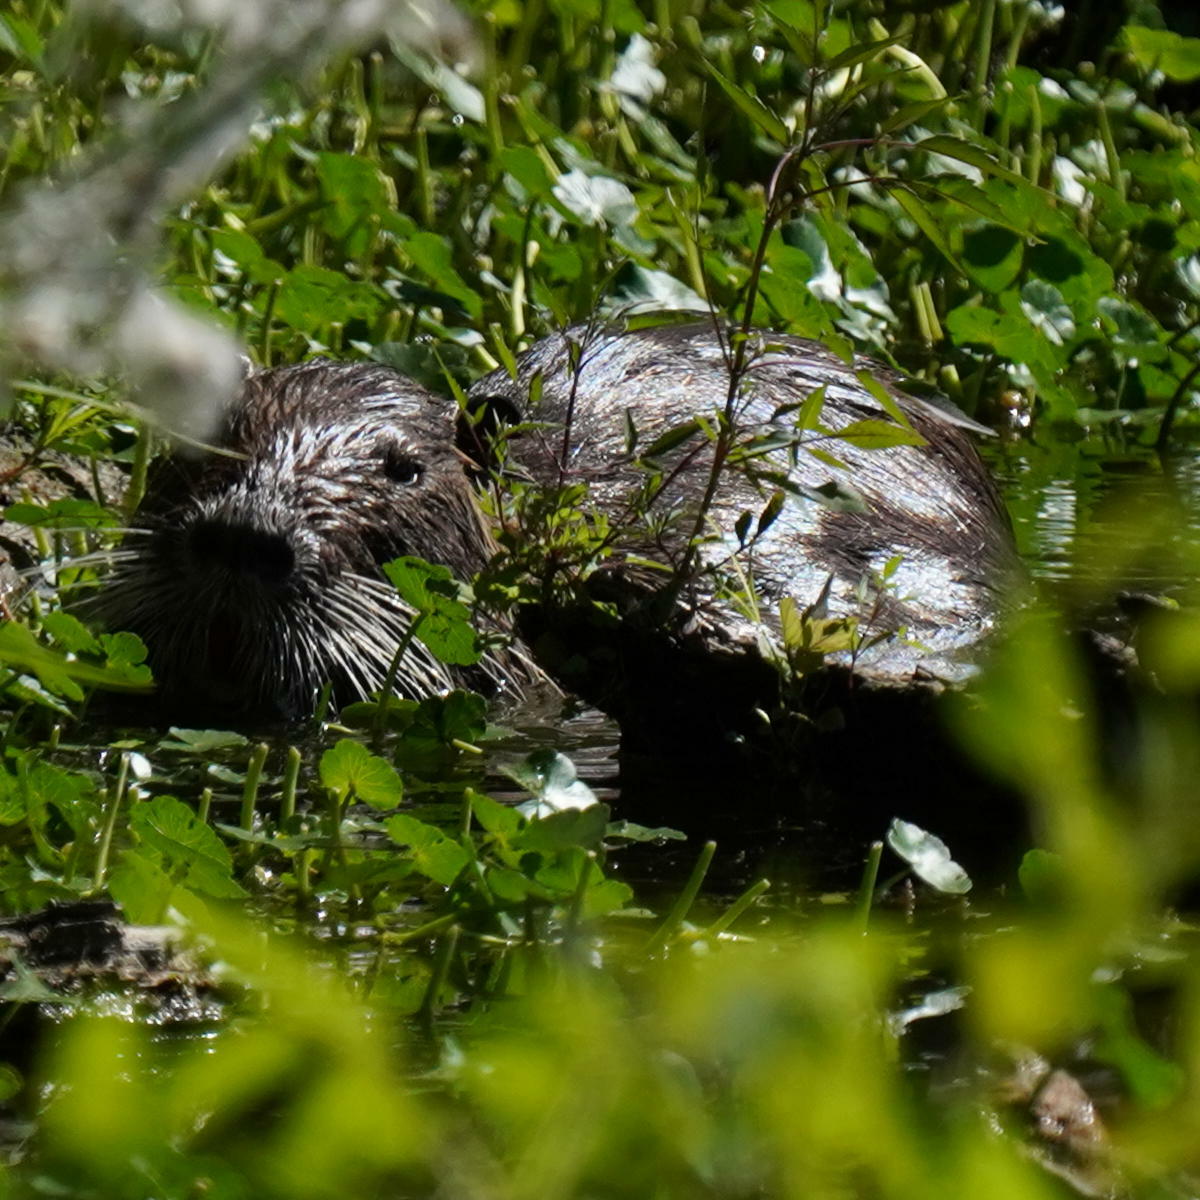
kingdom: Animalia
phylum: Chordata
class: Mammalia
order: Rodentia
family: Myocastoridae
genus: Myocastor
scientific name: Myocastor coypus
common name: Coypu
